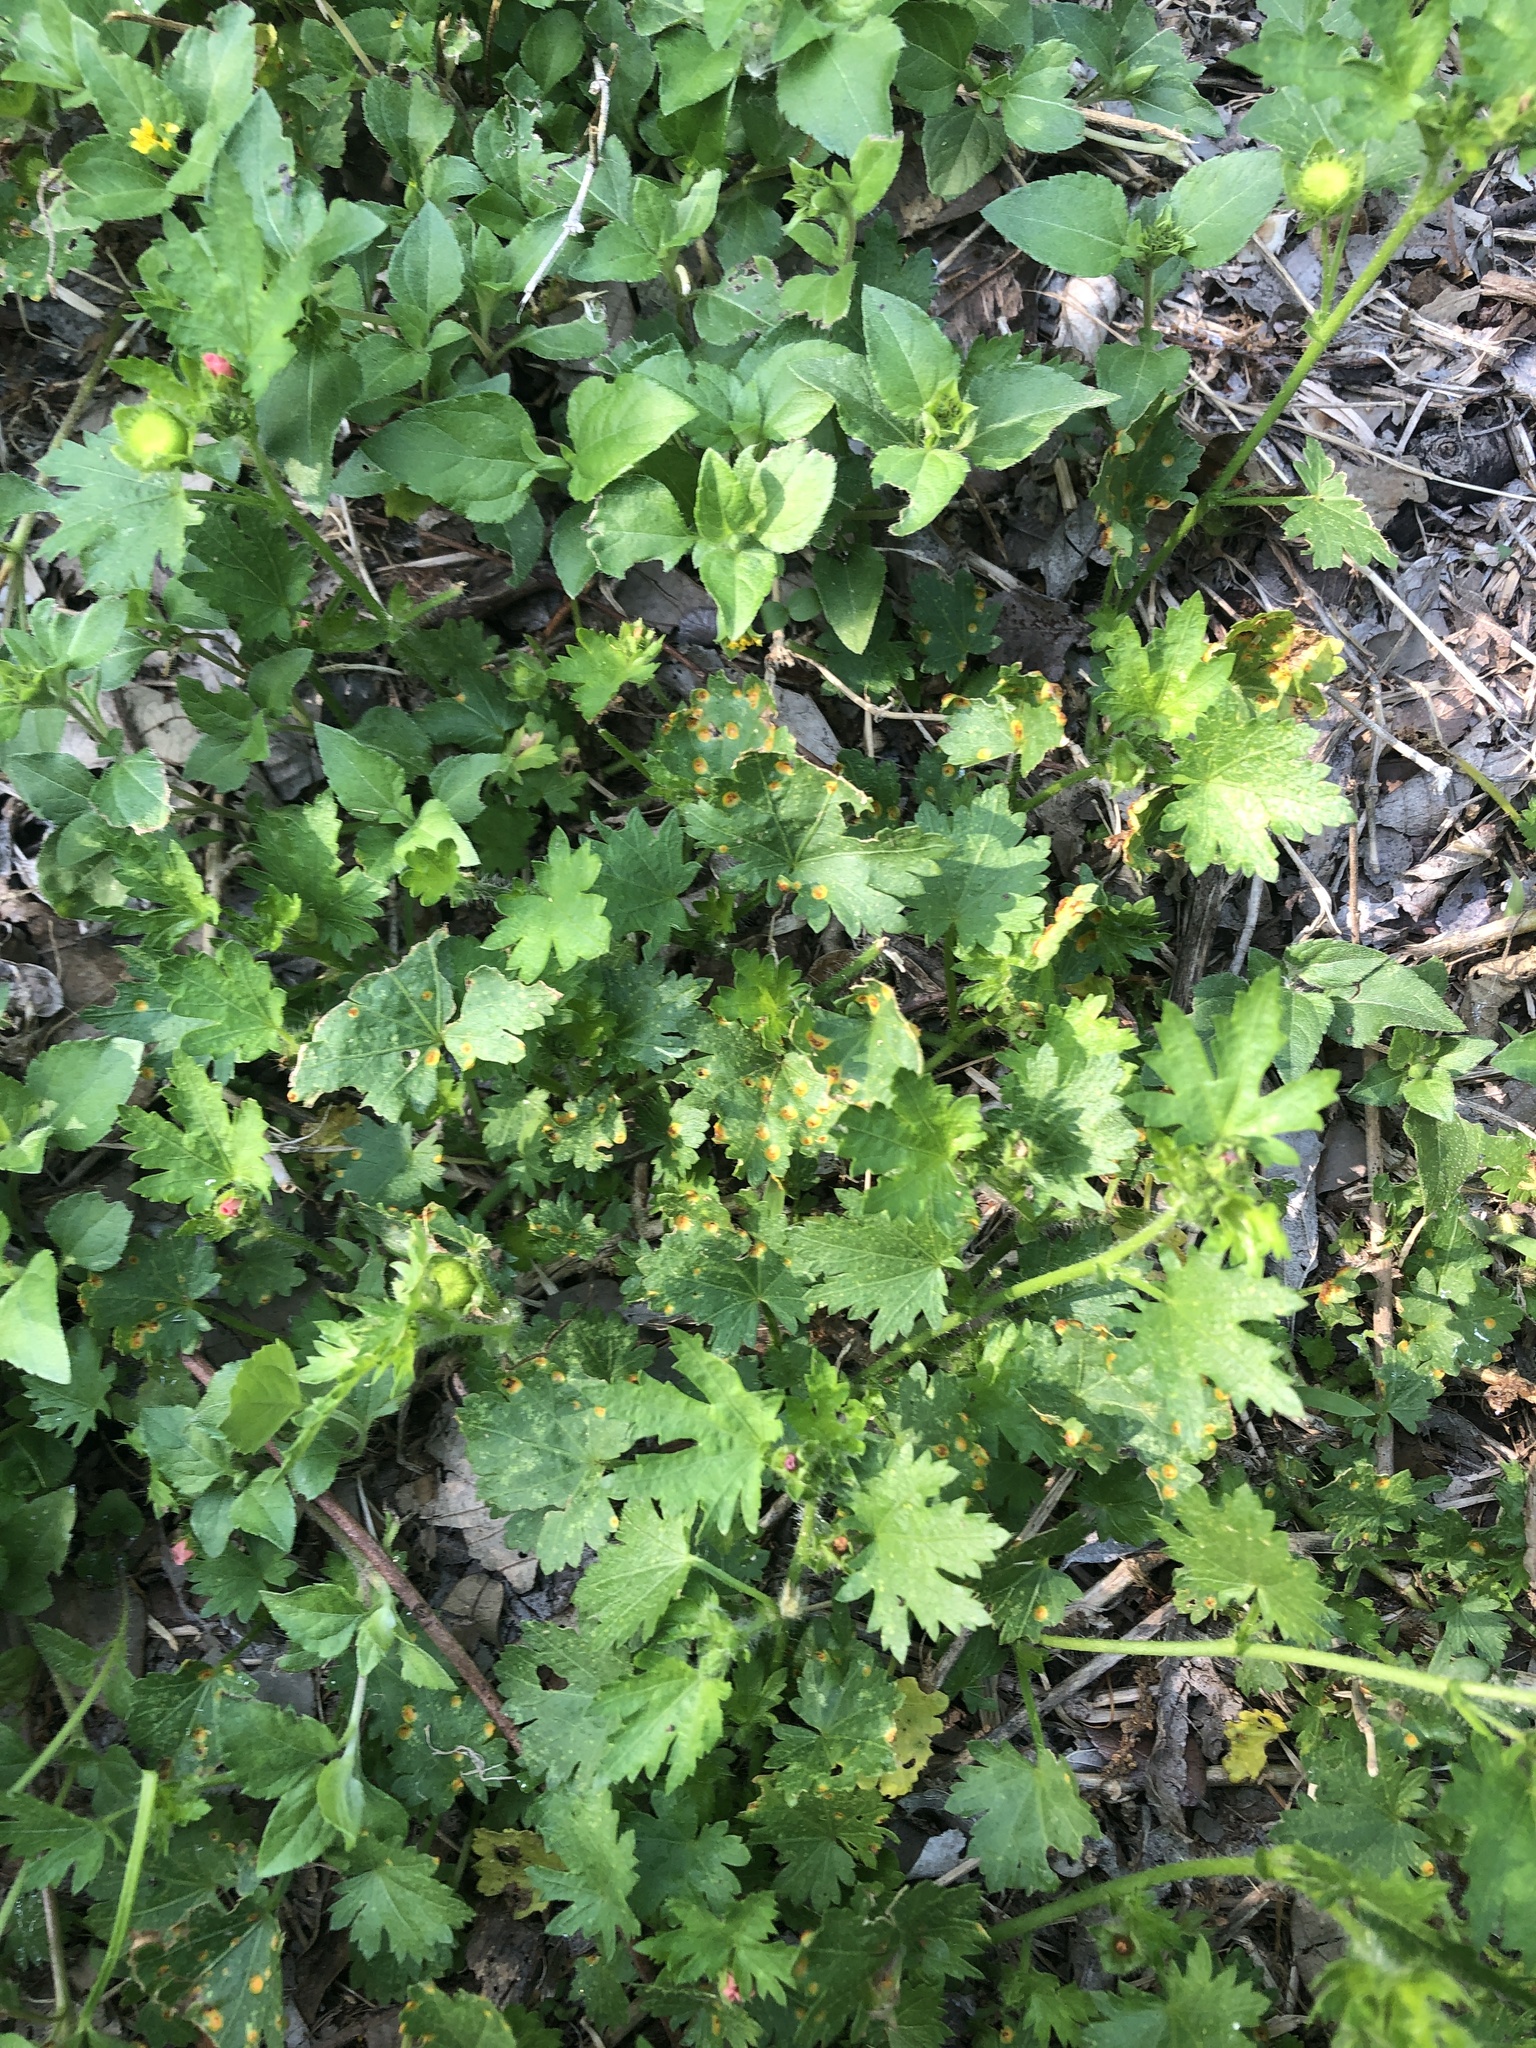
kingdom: Fungi
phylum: Basidiomycota
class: Pucciniomycetes
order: Pucciniales
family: Pucciniaceae
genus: Puccinia
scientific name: Puccinia modiolae
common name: Rust of bristlemallow
